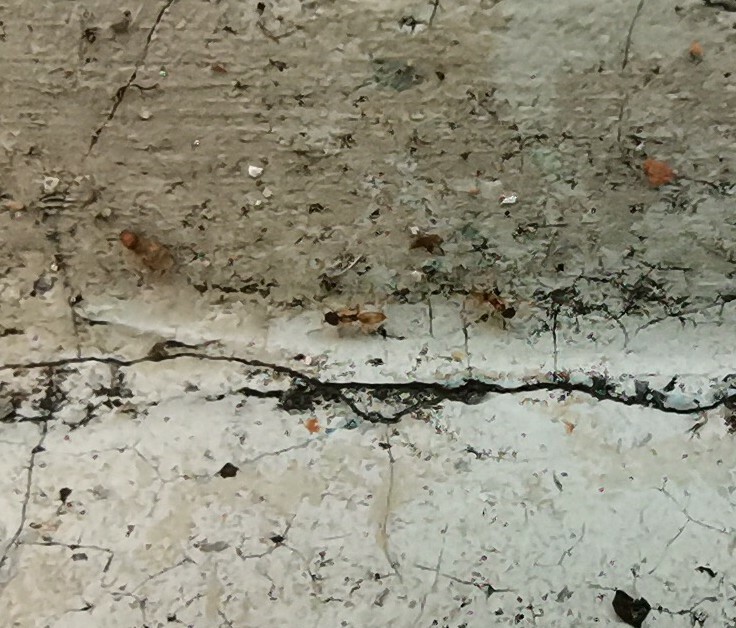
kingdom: Animalia
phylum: Arthropoda
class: Insecta
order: Hymenoptera
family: Formicidae
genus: Tapinoma
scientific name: Tapinoma melanocephalum
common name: Ghost ant
